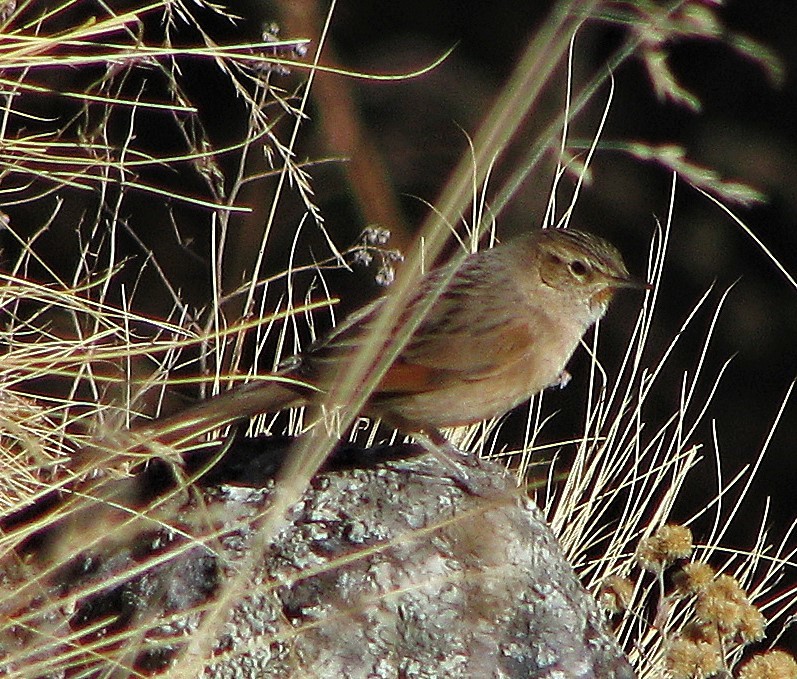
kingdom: Animalia
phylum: Chordata
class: Aves
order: Passeriformes
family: Furnariidae
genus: Asthenes
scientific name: Asthenes wyatti
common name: Streak-backed canastero
